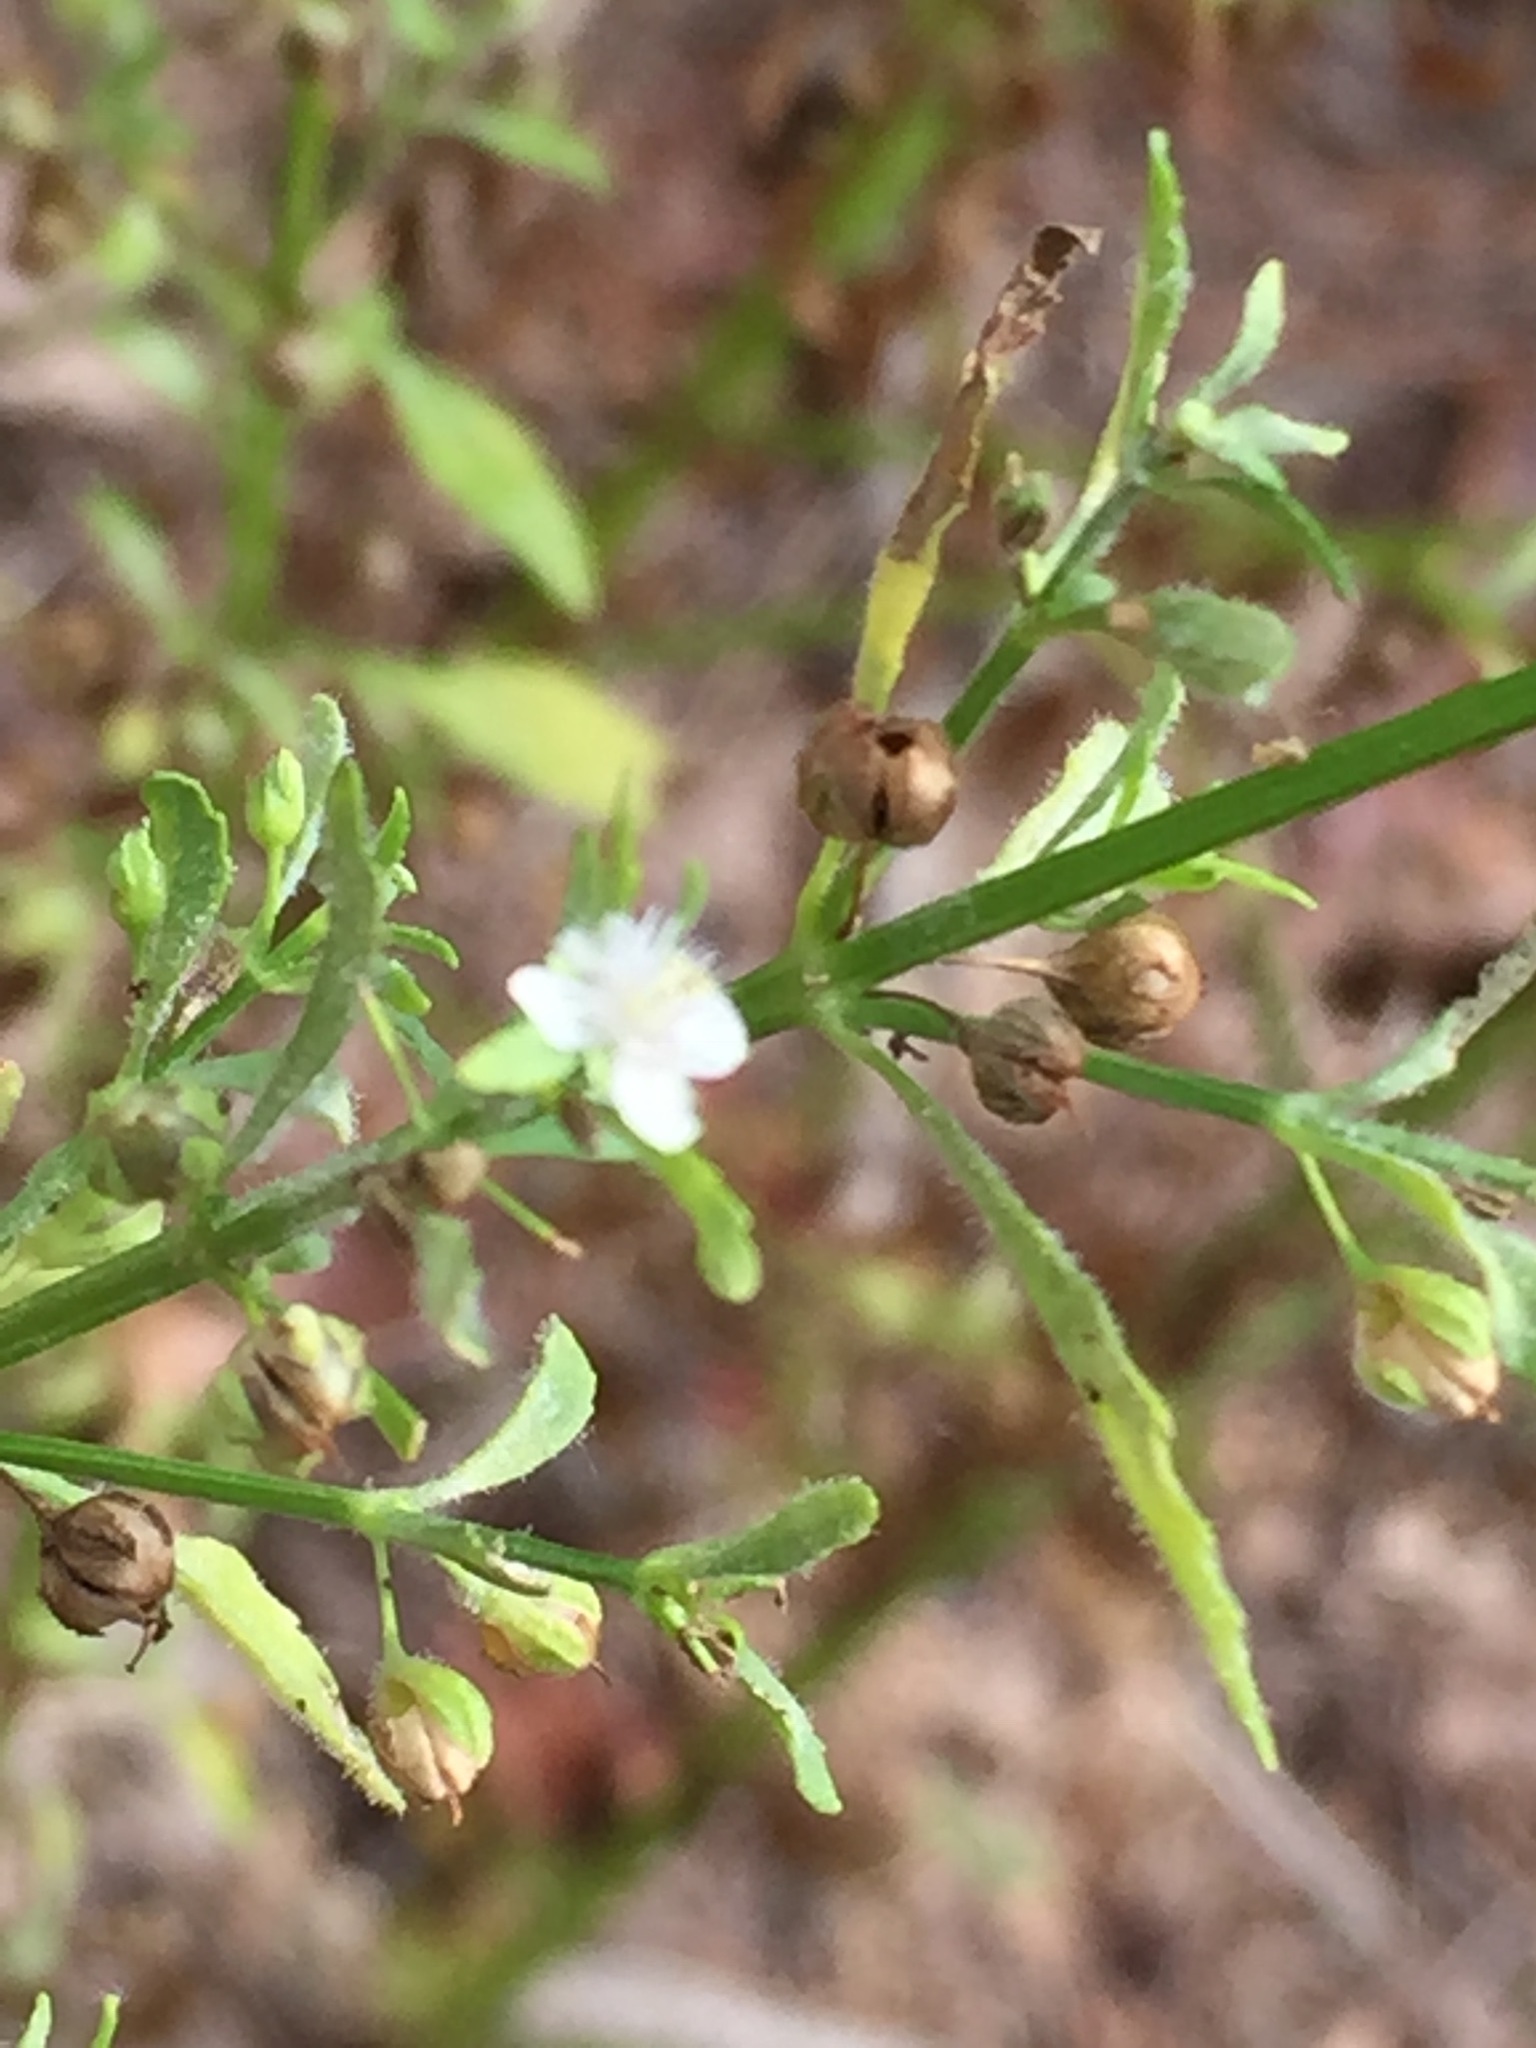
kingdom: Plantae
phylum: Tracheophyta
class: Magnoliopsida
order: Lamiales
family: Plantaginaceae
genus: Scoparia
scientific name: Scoparia dulcis
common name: Scoparia-weed
